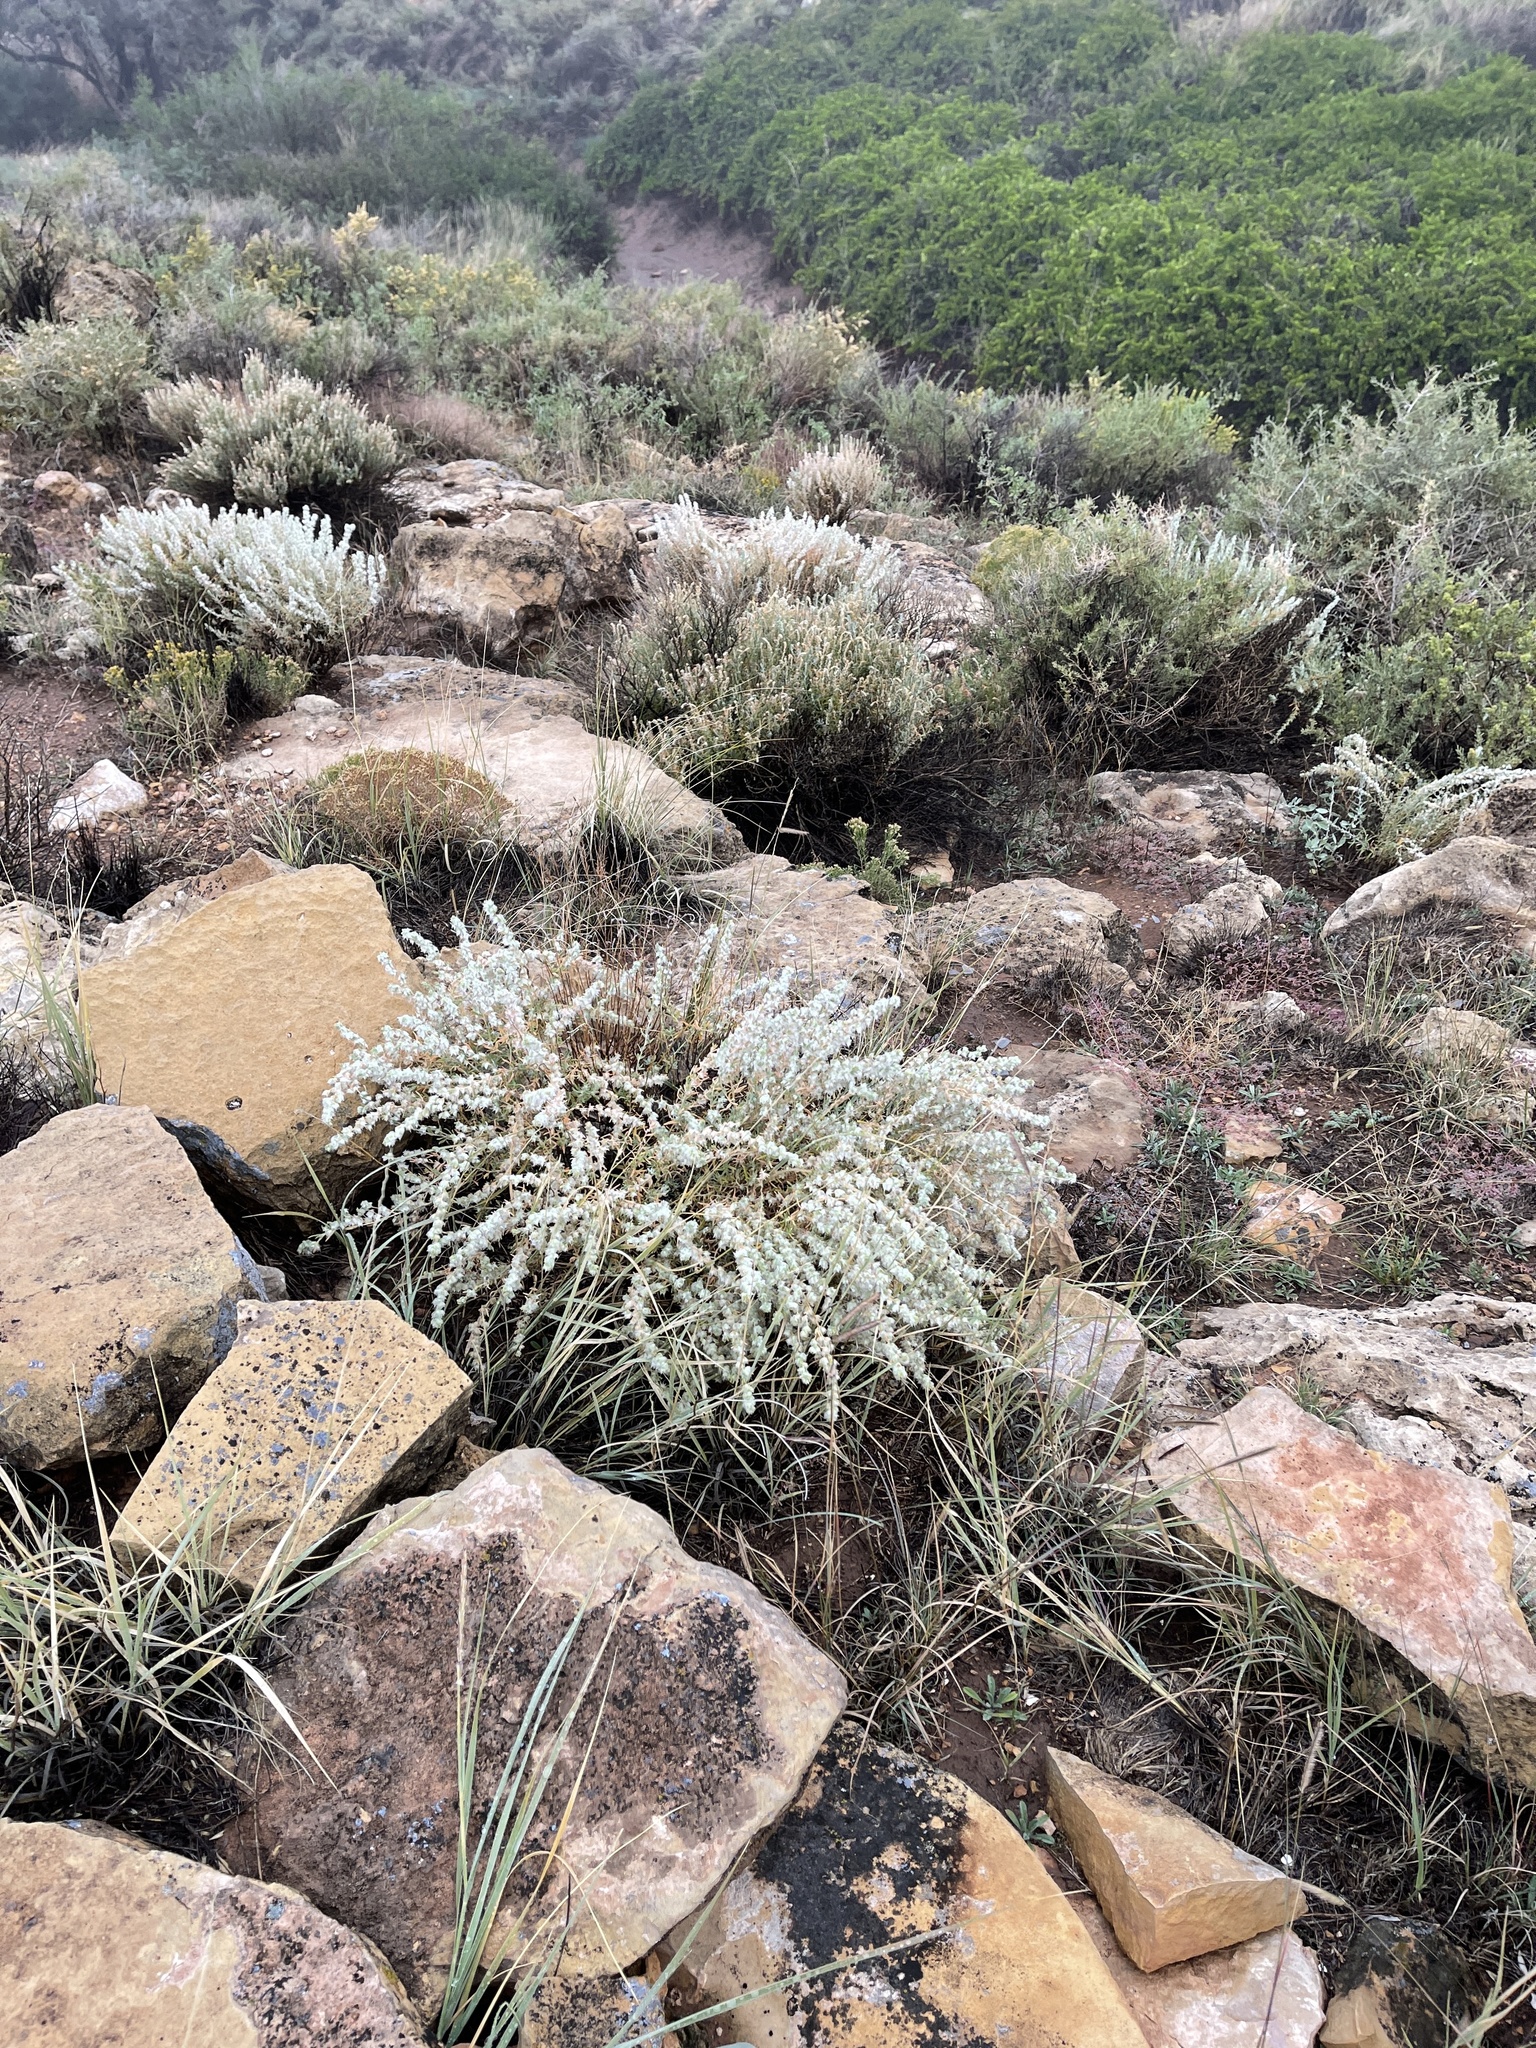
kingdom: Plantae
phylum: Tracheophyta
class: Magnoliopsida
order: Caryophyllales
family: Amaranthaceae
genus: Krascheninnikovia
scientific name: Krascheninnikovia lanata
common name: Winterfat
